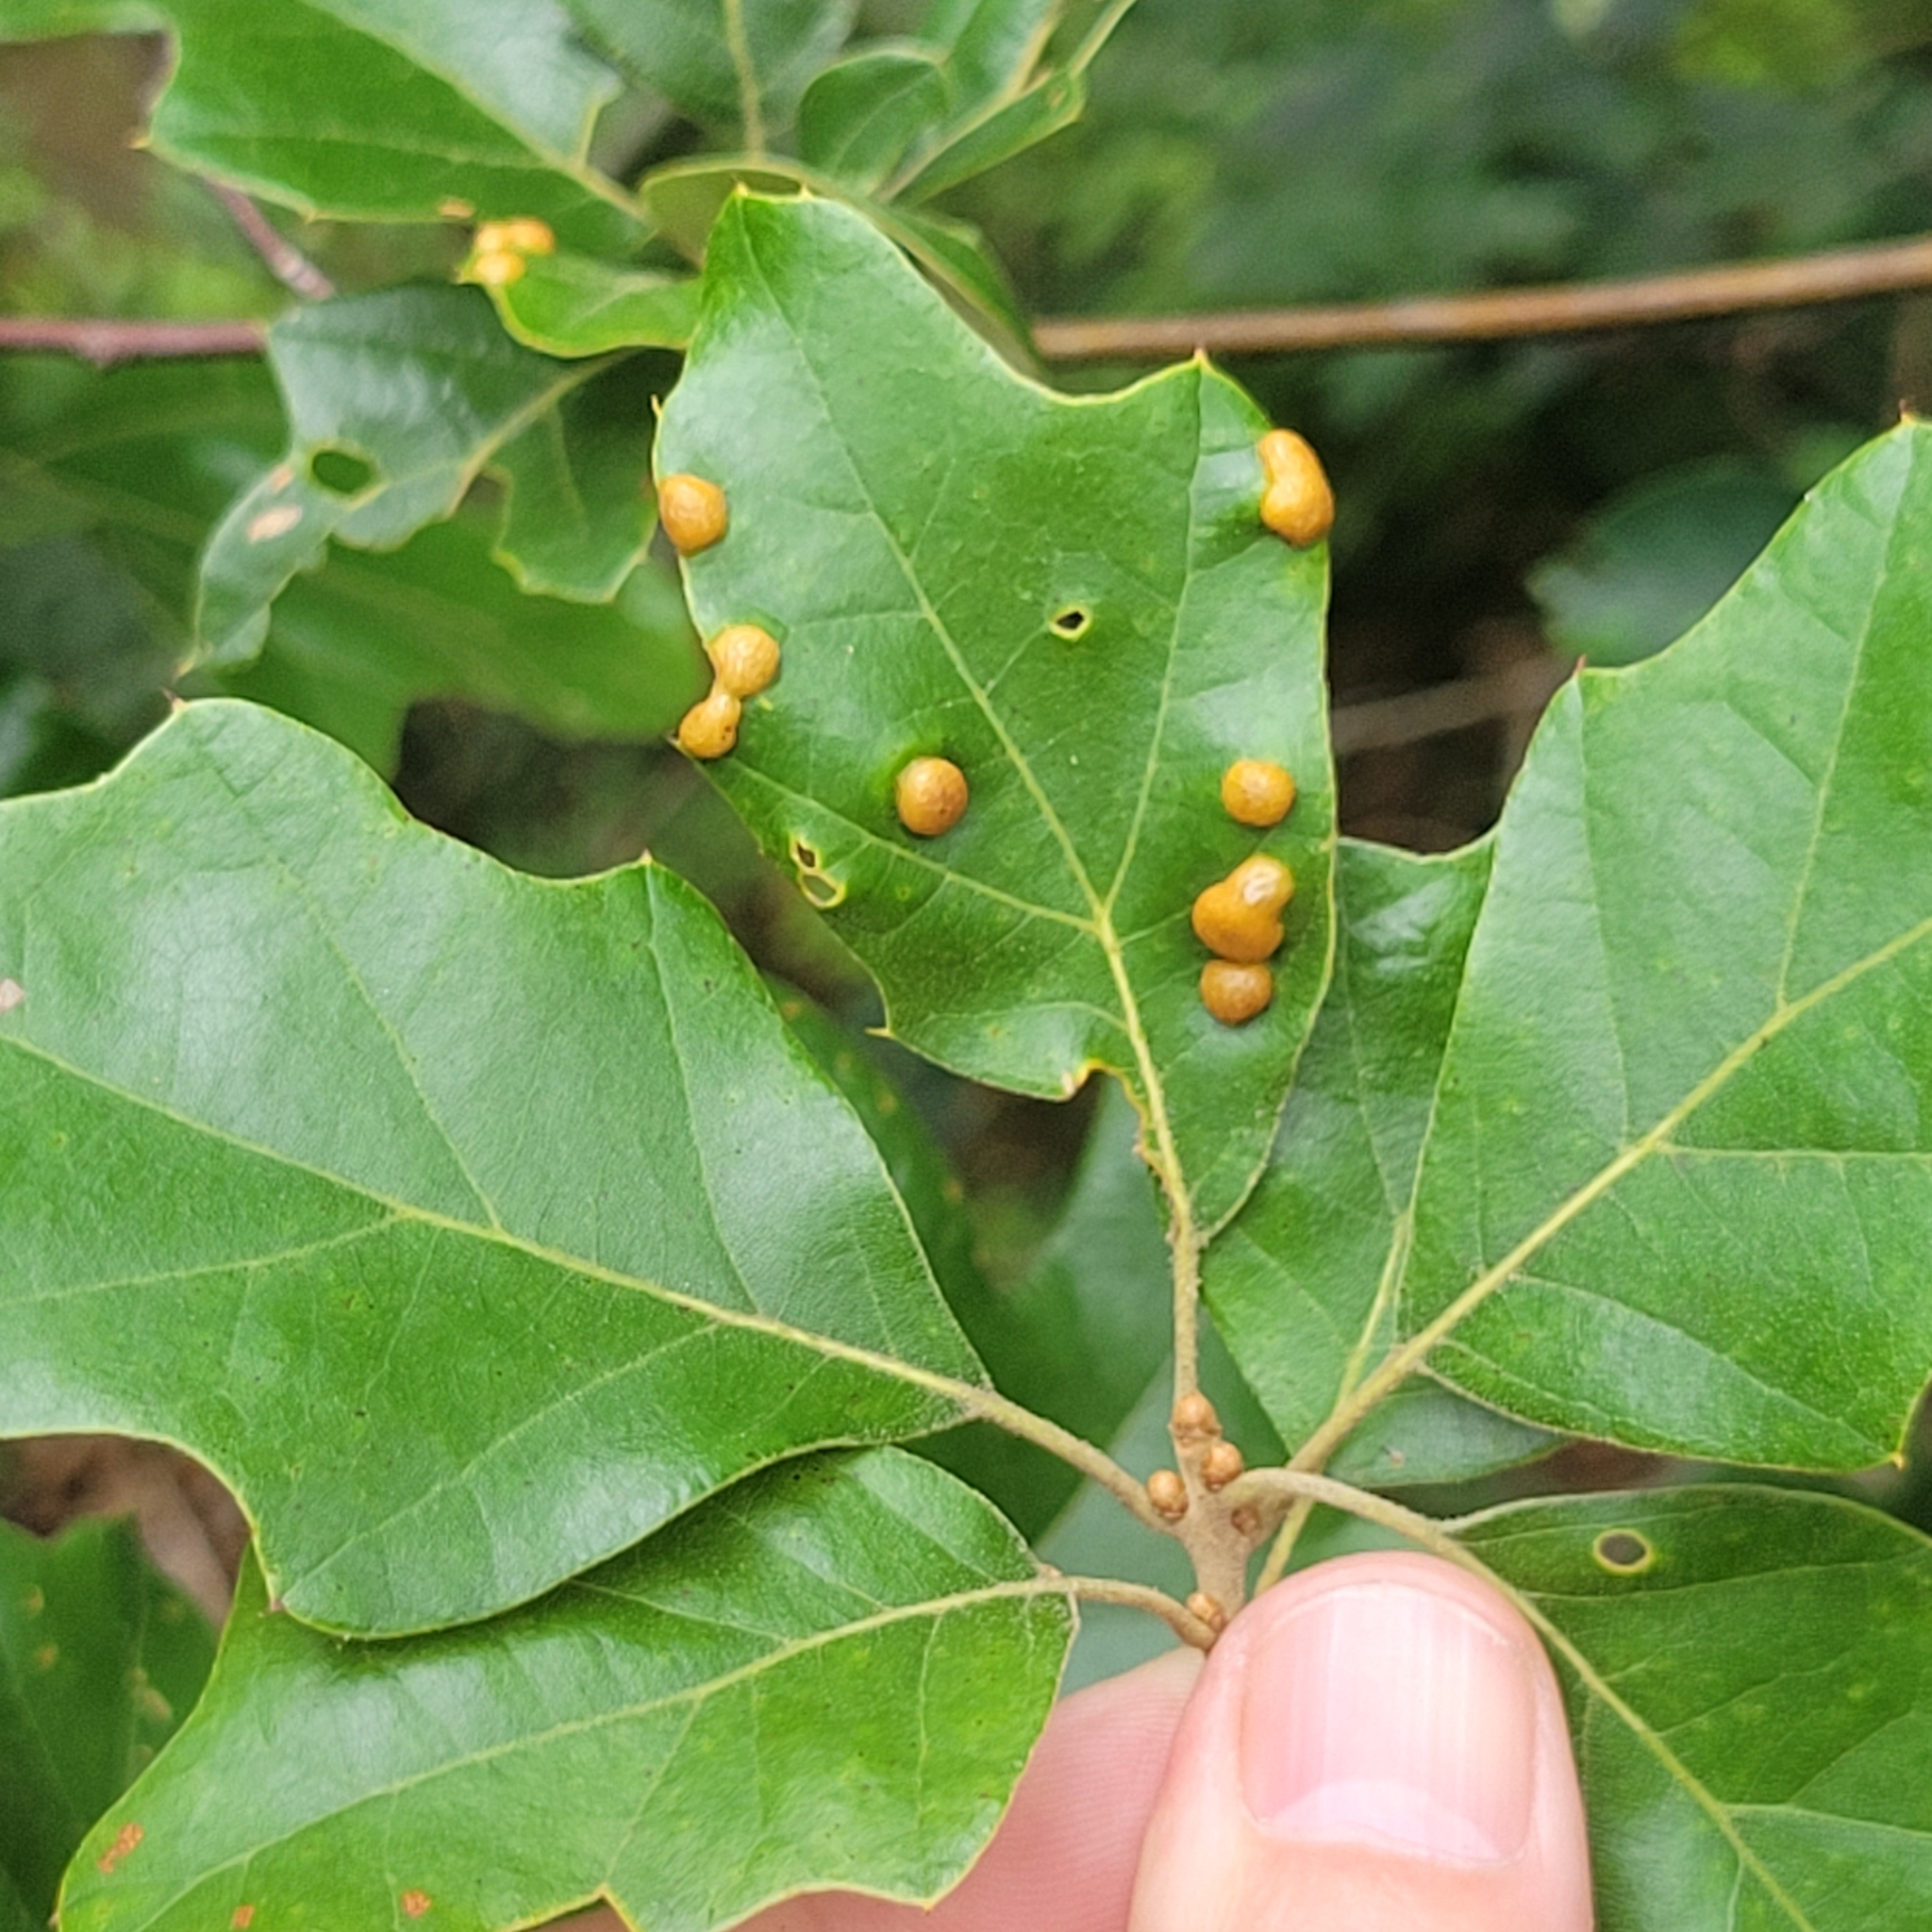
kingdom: Animalia
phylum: Arthropoda
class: Insecta
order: Diptera
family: Cecidomyiidae
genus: Polystepha
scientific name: Polystepha pilulae
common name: Oak leaf gall midge
